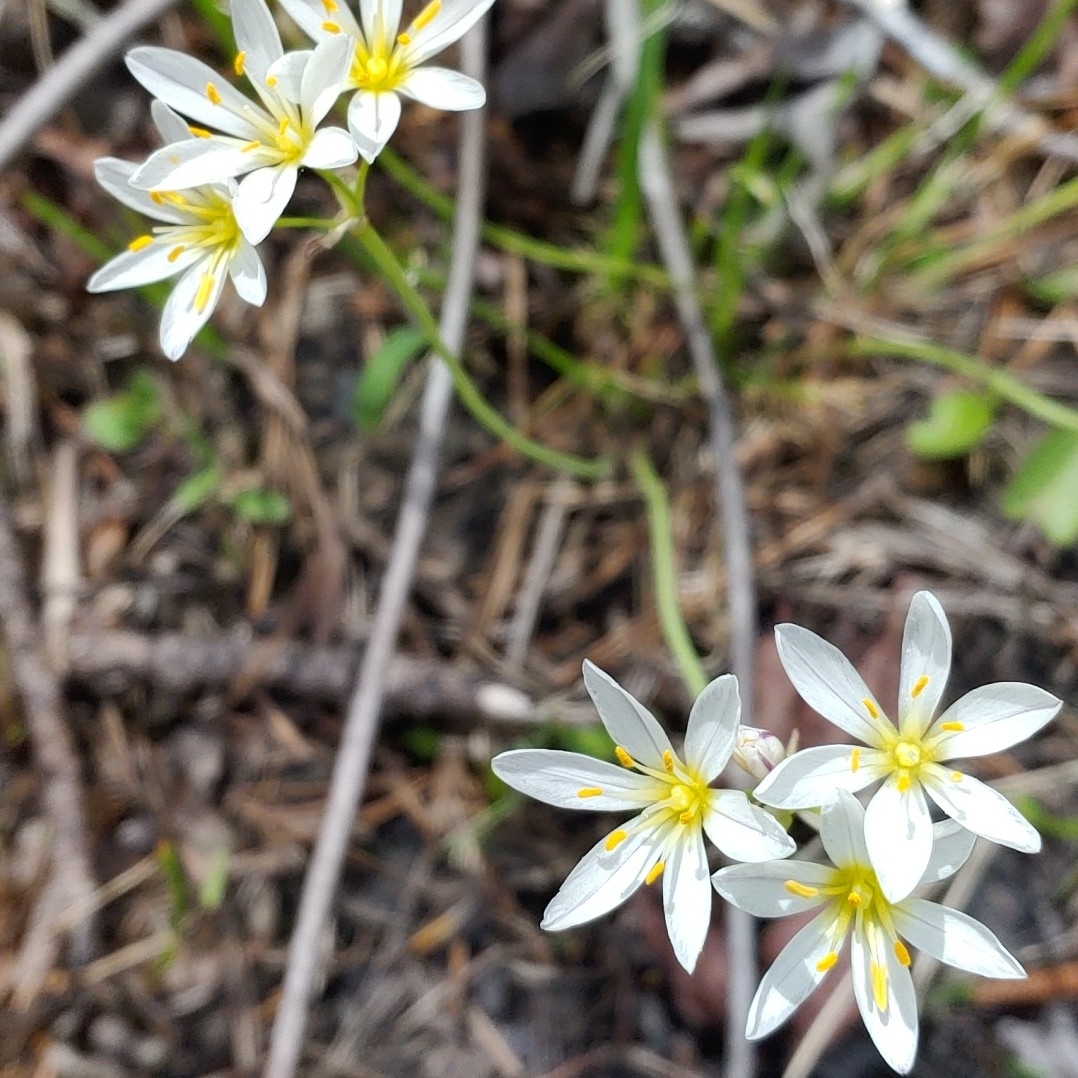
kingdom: Plantae
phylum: Tracheophyta
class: Liliopsida
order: Asparagales
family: Amaryllidaceae
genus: Nothoscordum
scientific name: Nothoscordum bivalve
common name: Crow-poison
